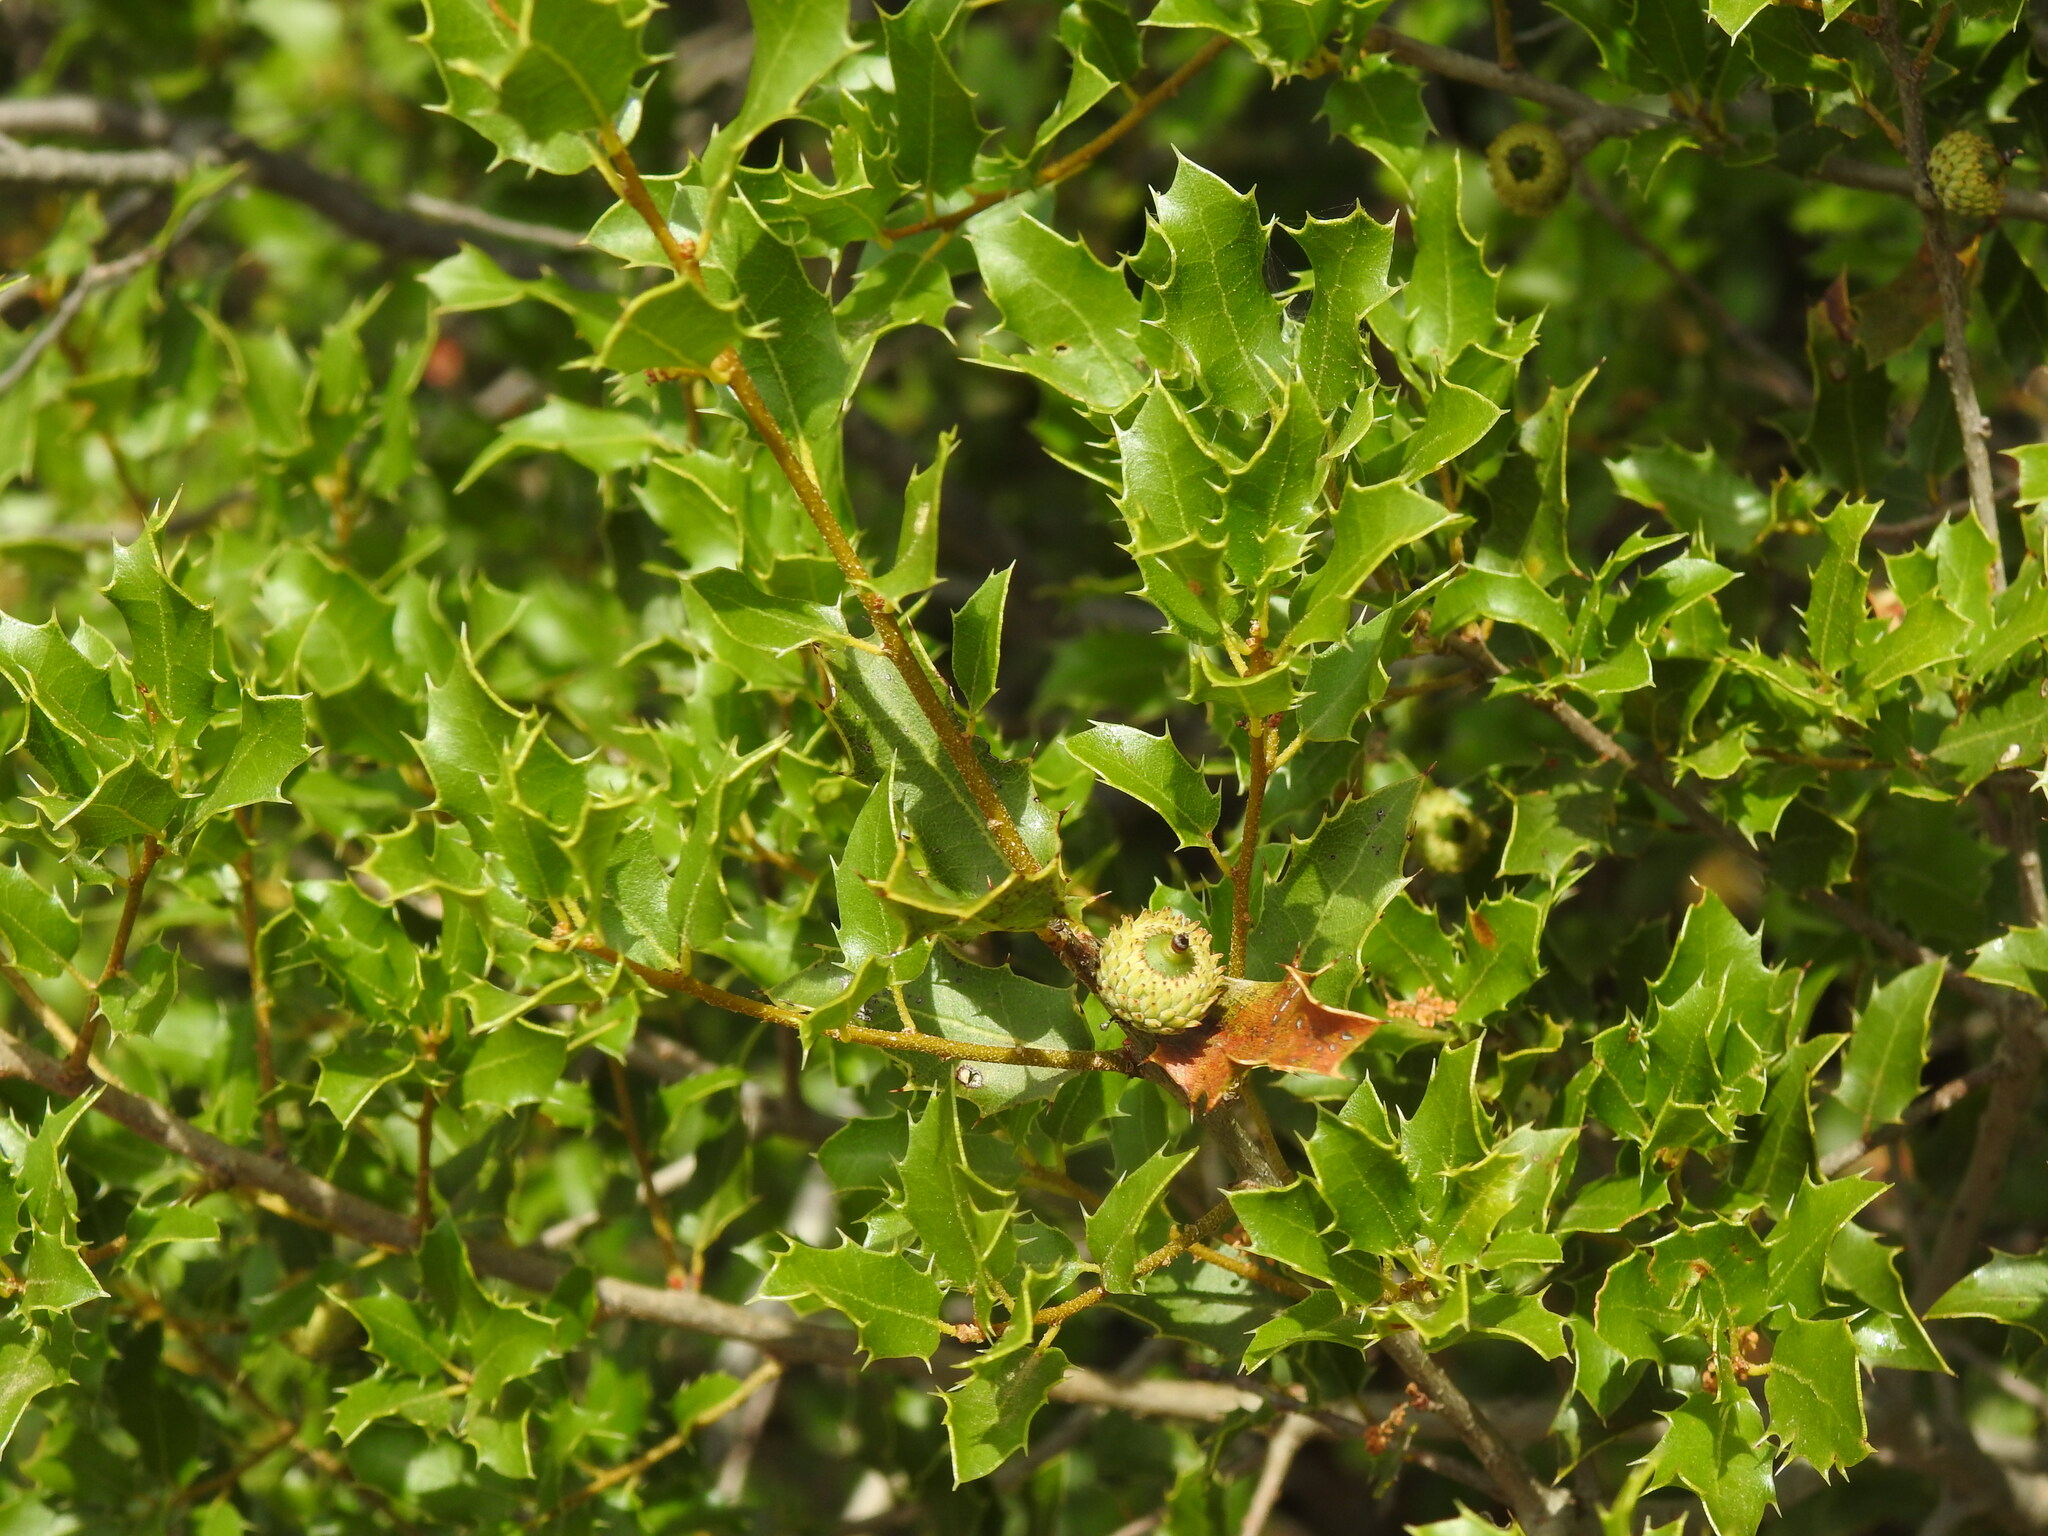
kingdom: Plantae
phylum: Tracheophyta
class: Magnoliopsida
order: Fagales
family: Fagaceae
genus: Quercus
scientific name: Quercus coccifera
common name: Kermes oak
